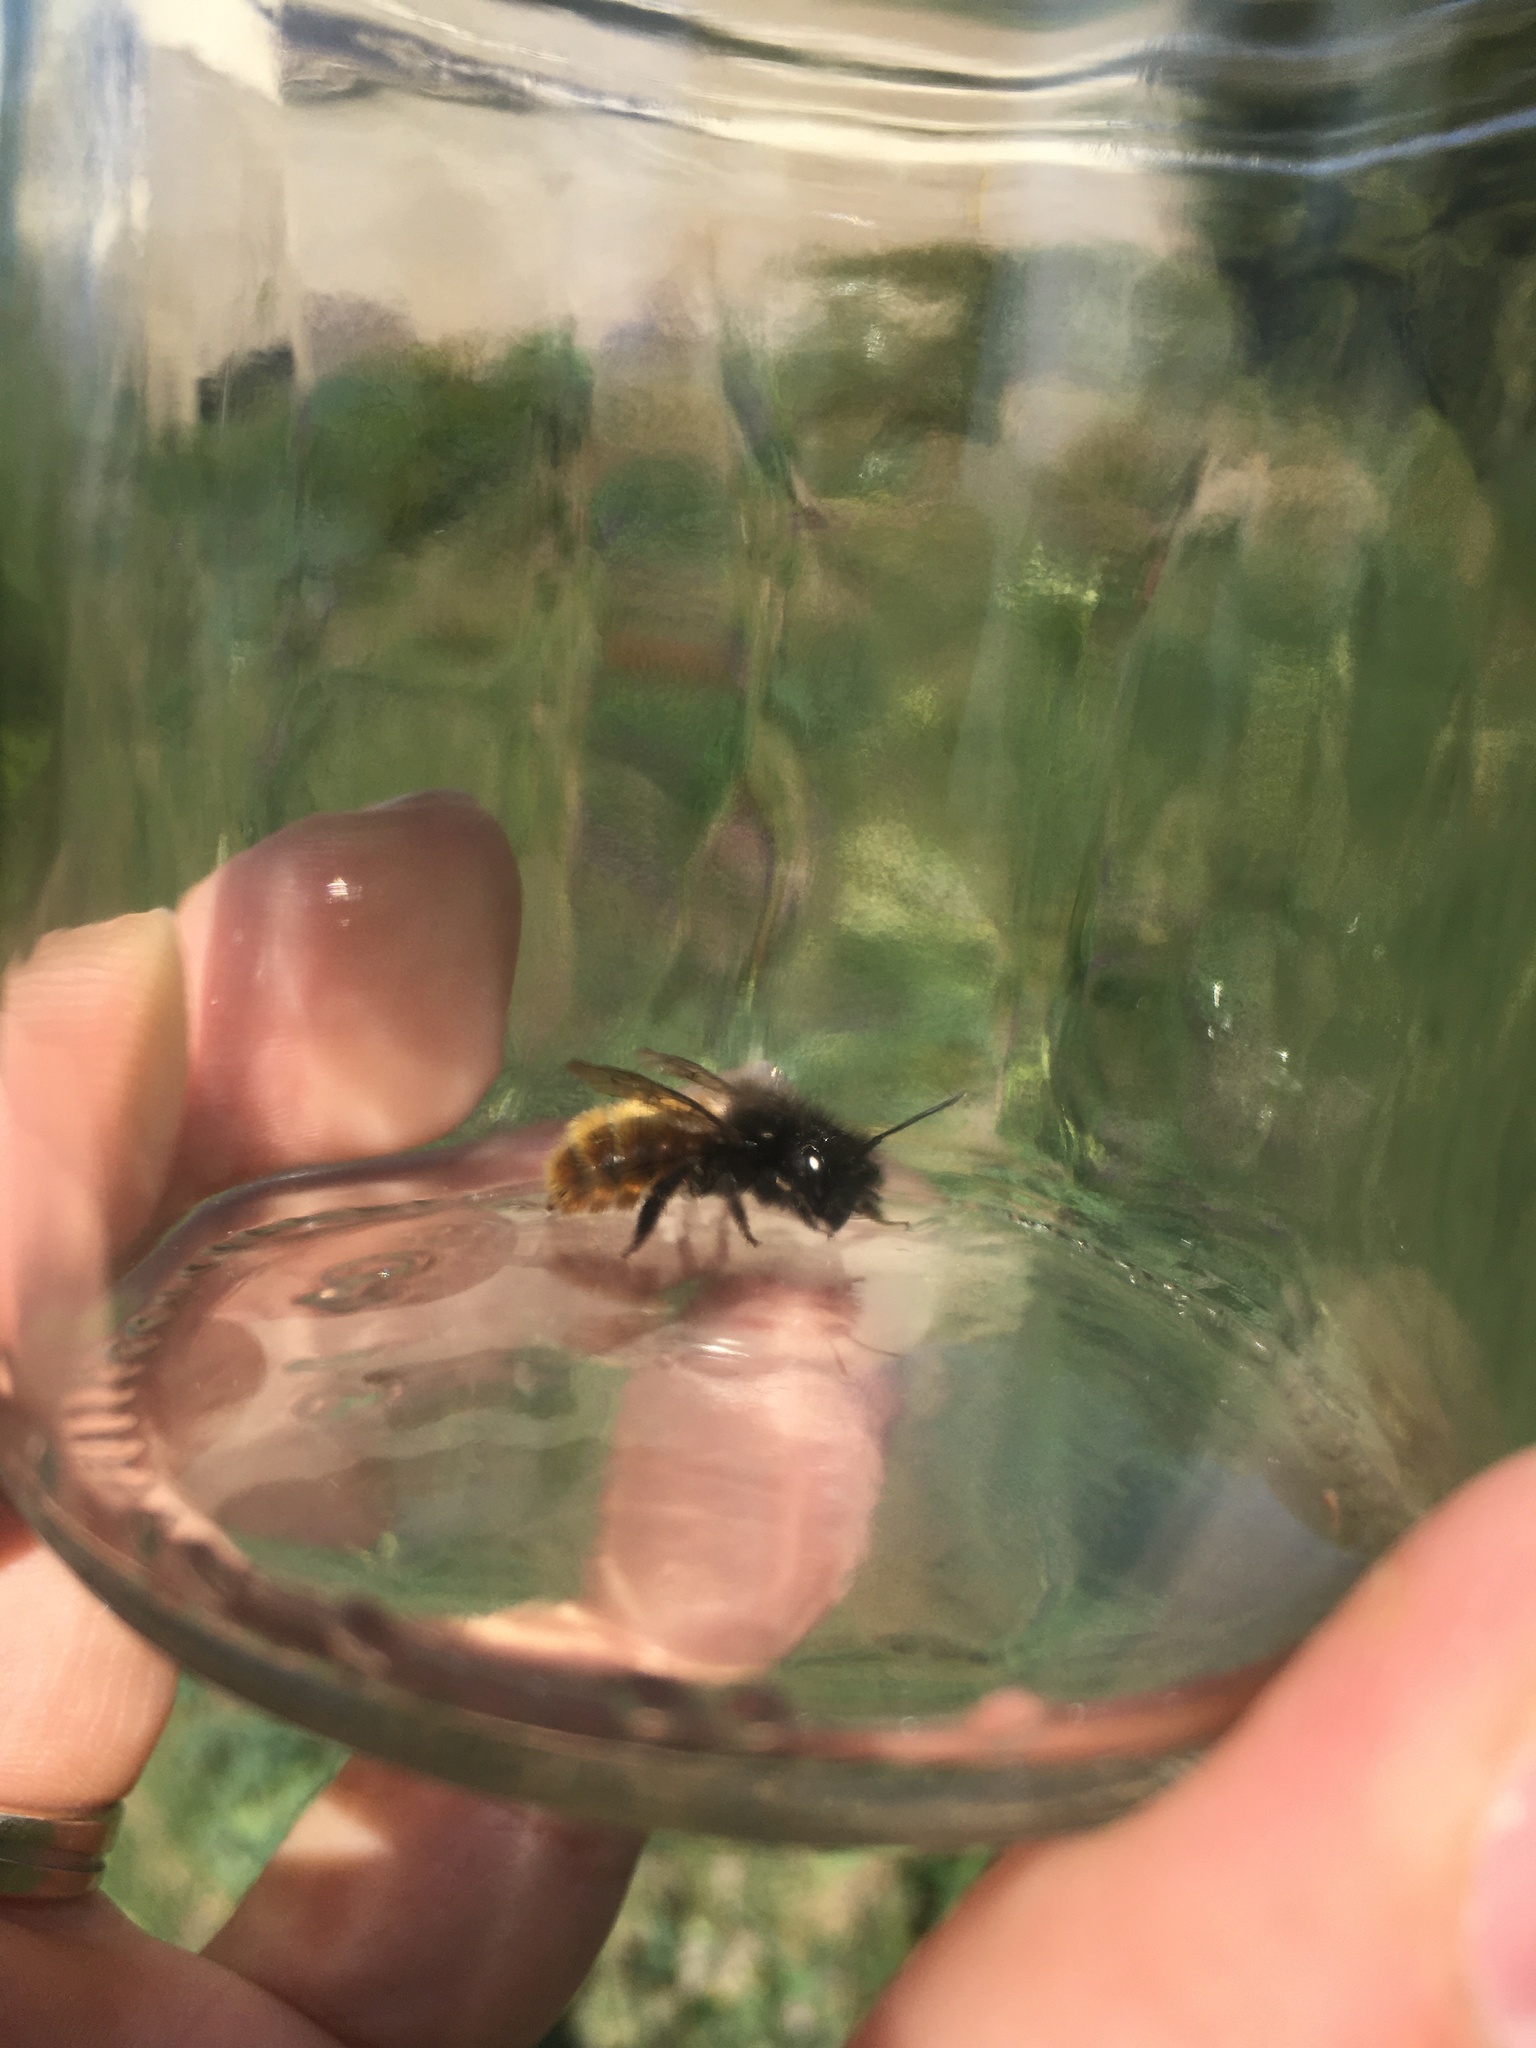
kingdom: Animalia
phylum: Arthropoda
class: Insecta
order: Hymenoptera
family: Megachilidae
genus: Osmia
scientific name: Osmia bicornis
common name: Red mason bee
